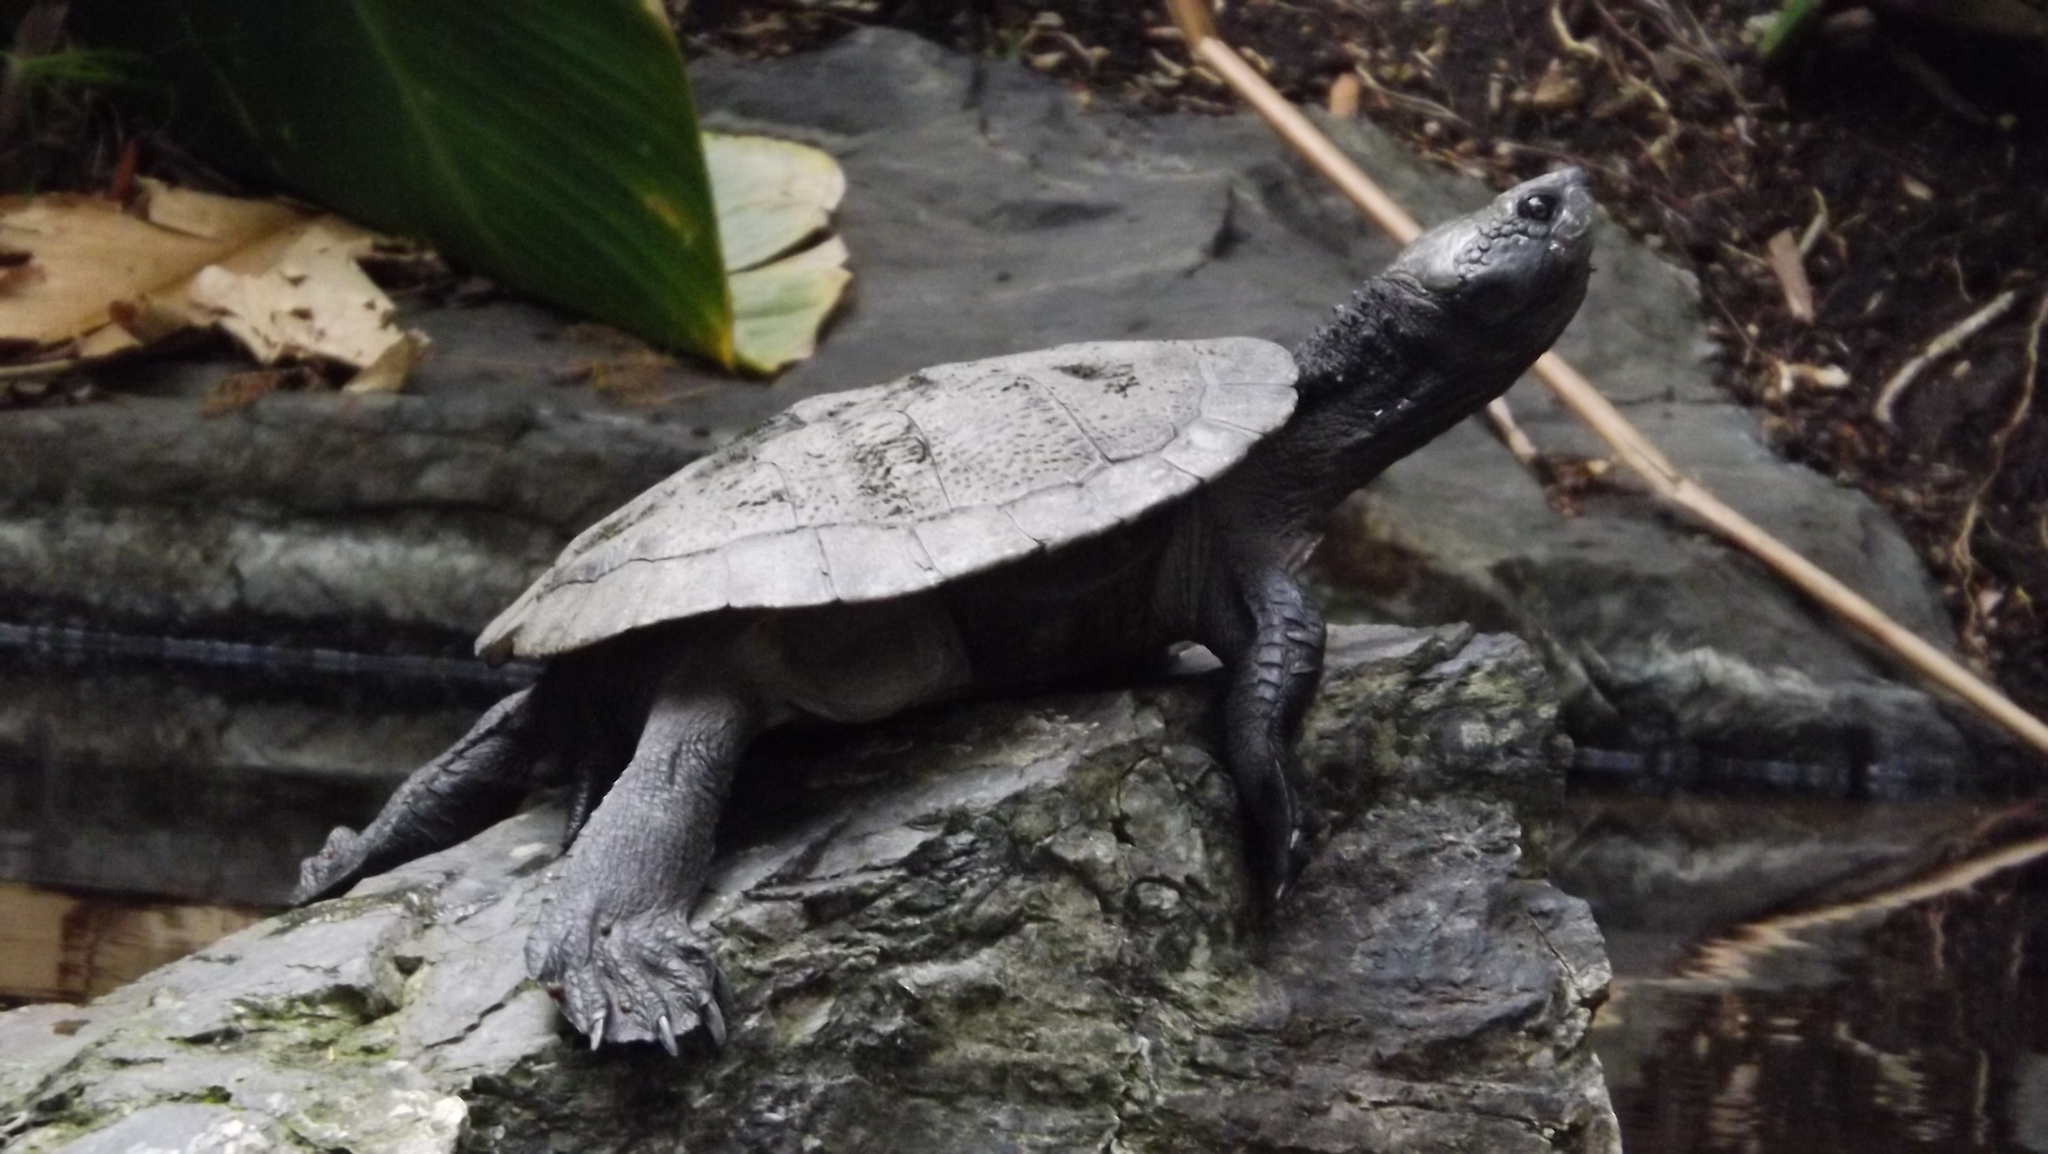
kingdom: Animalia
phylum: Chordata
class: Testudines
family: Chelidae
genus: Myuchelys
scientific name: Myuchelys latisternum
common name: Serrated snapping turtle
